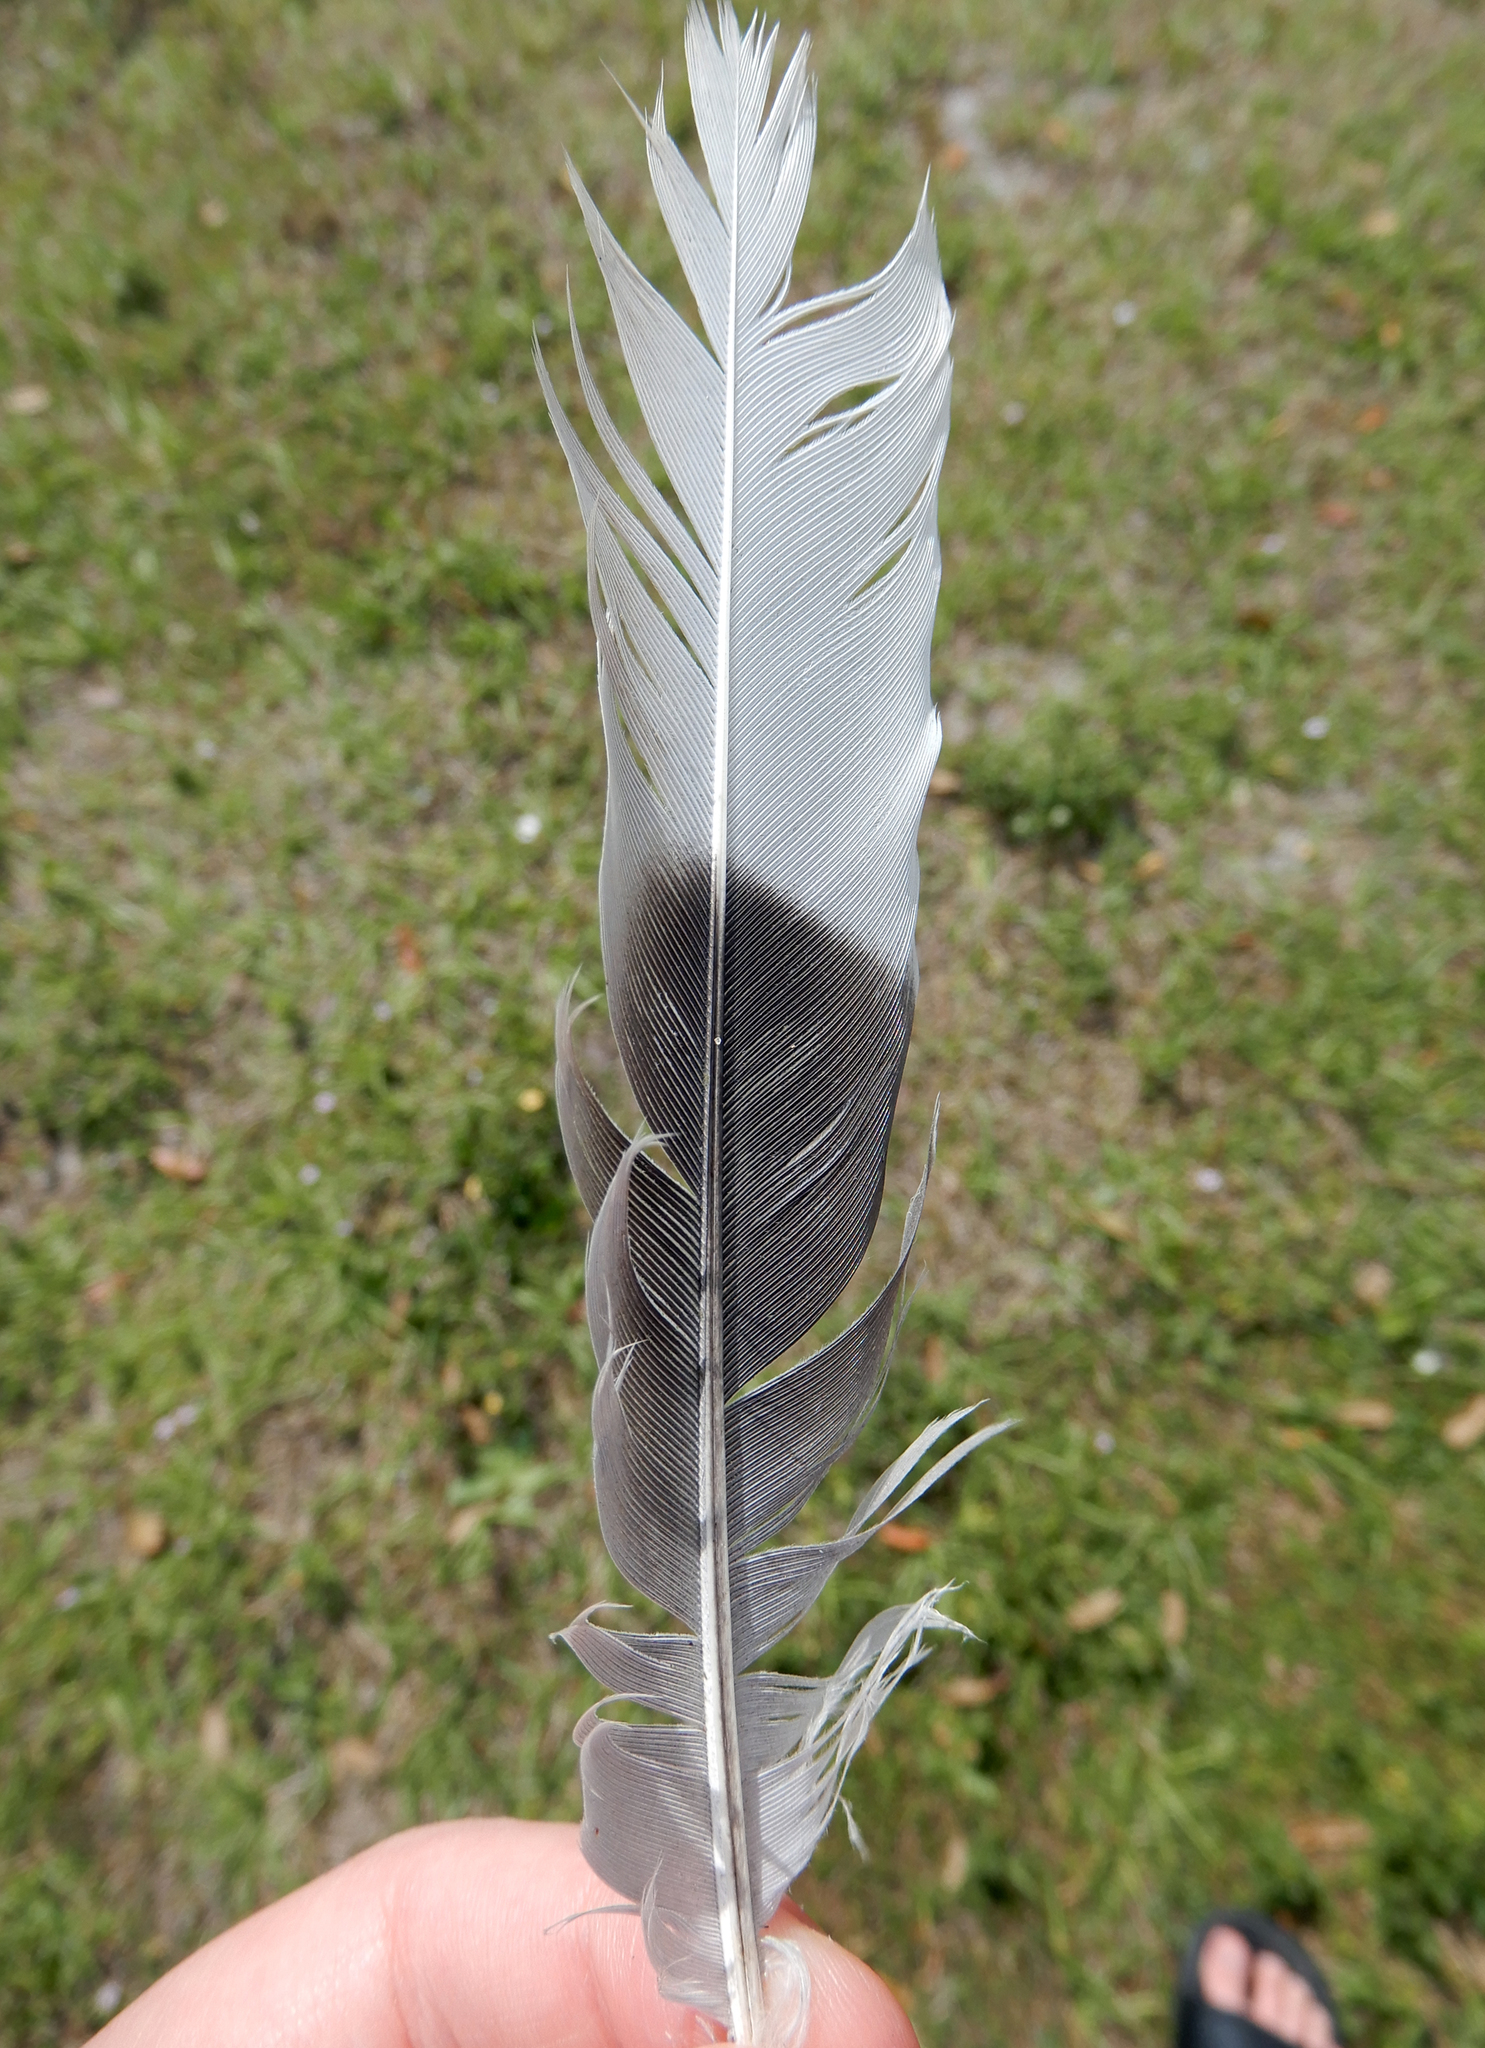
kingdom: Animalia
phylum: Chordata
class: Aves
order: Columbiformes
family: Columbidae
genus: Streptopelia
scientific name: Streptopelia decaocto
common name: Eurasian collared dove
